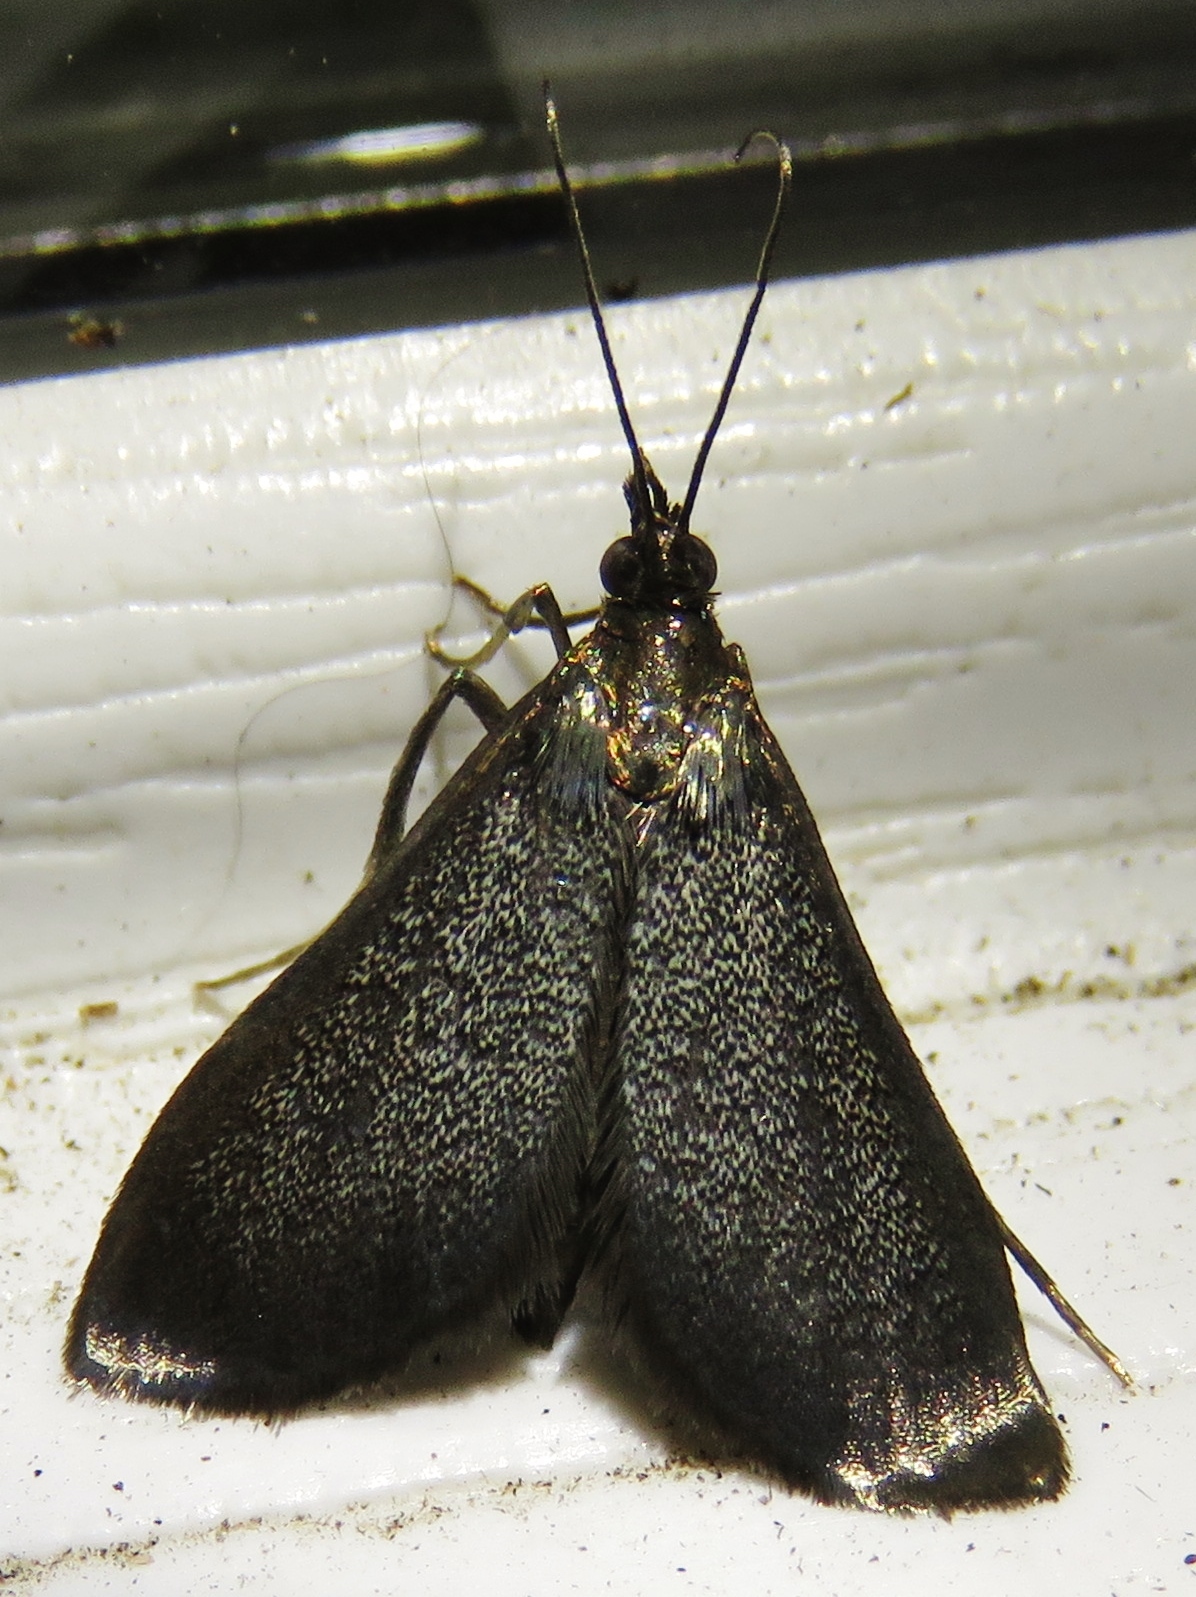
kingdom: Animalia
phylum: Arthropoda
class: Insecta
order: Lepidoptera
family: Crambidae
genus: Pyrausta
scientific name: Pyrausta demantrialis
